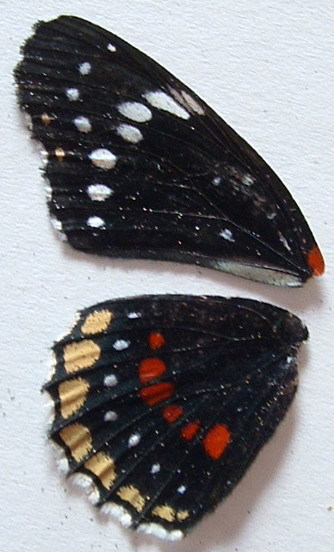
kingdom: Animalia
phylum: Arthropoda
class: Insecta
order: Lepidoptera
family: Nymphalidae
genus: Chlosyne
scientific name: Chlosyne hippodrome
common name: Simple patch
